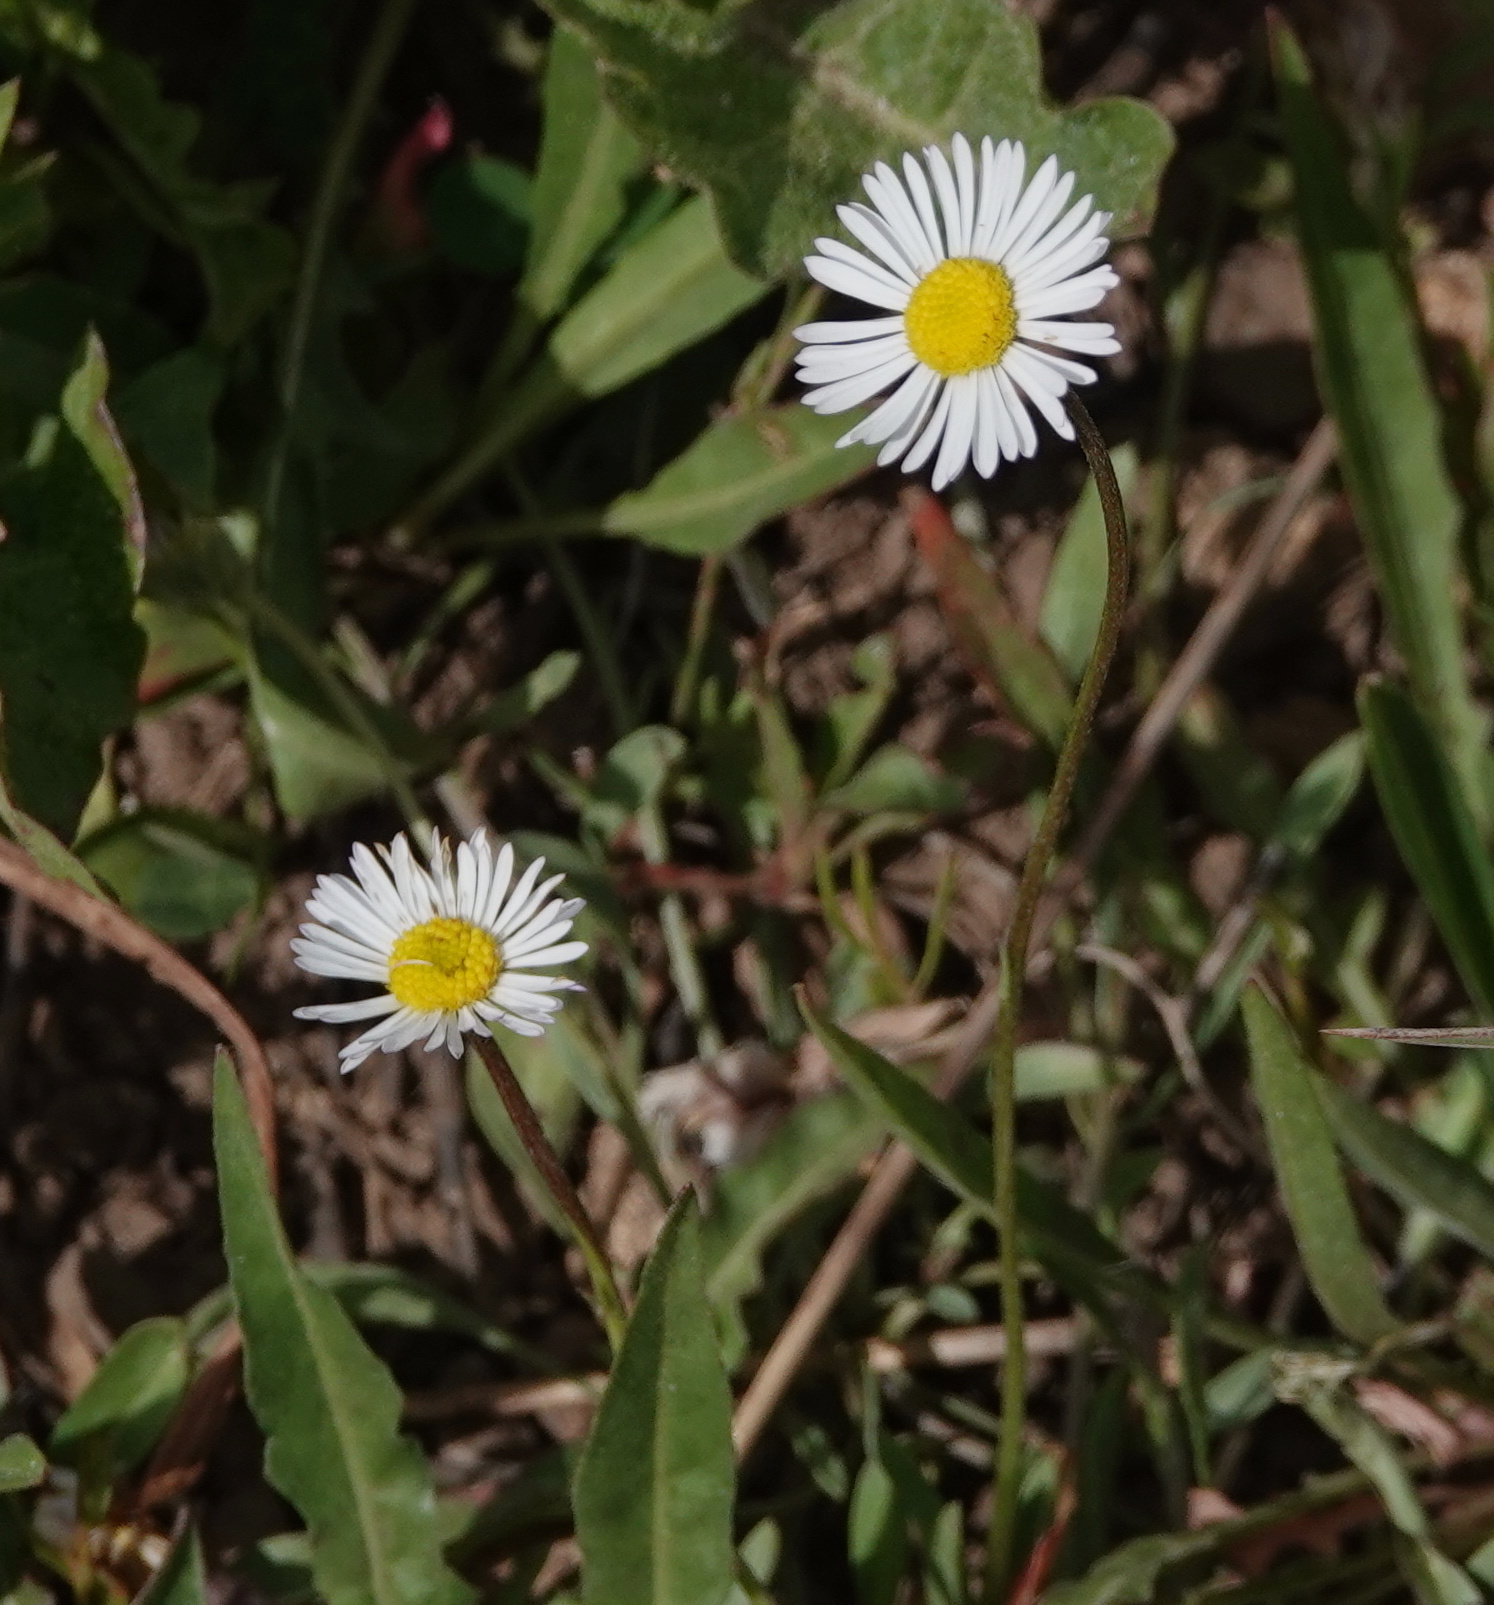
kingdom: Plantae
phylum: Tracheophyta
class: Magnoliopsida
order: Asterales
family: Asteraceae
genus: Erigeron
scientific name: Erigeron divergens
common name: Diffuse fleabane
